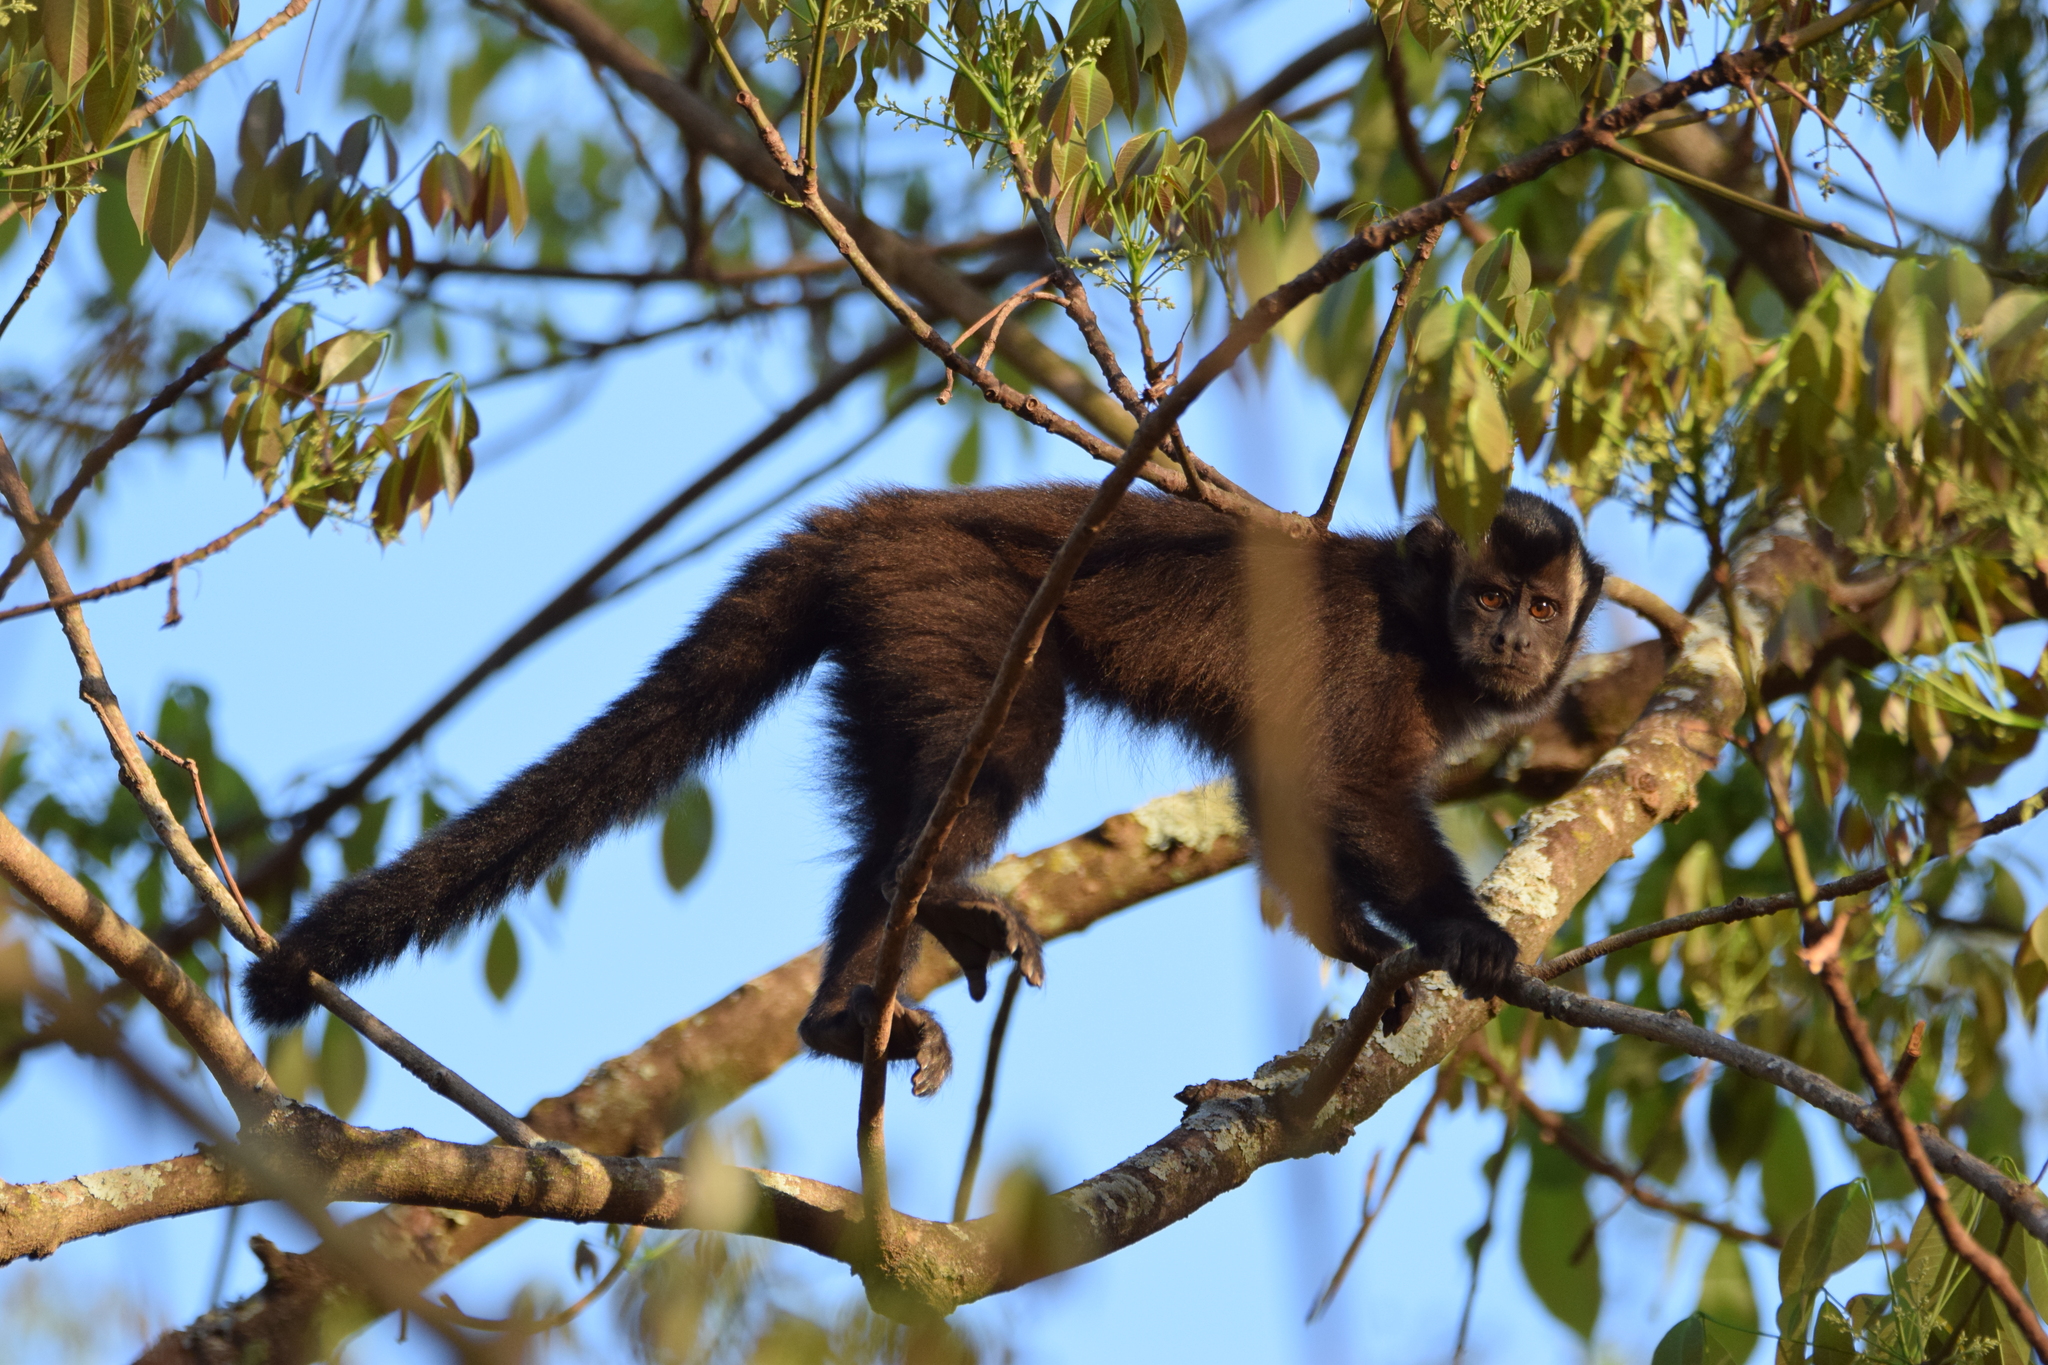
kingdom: Animalia
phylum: Chordata
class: Mammalia
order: Primates
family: Cebidae
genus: Sapajus
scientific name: Sapajus nigritus
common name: Black capuchin
